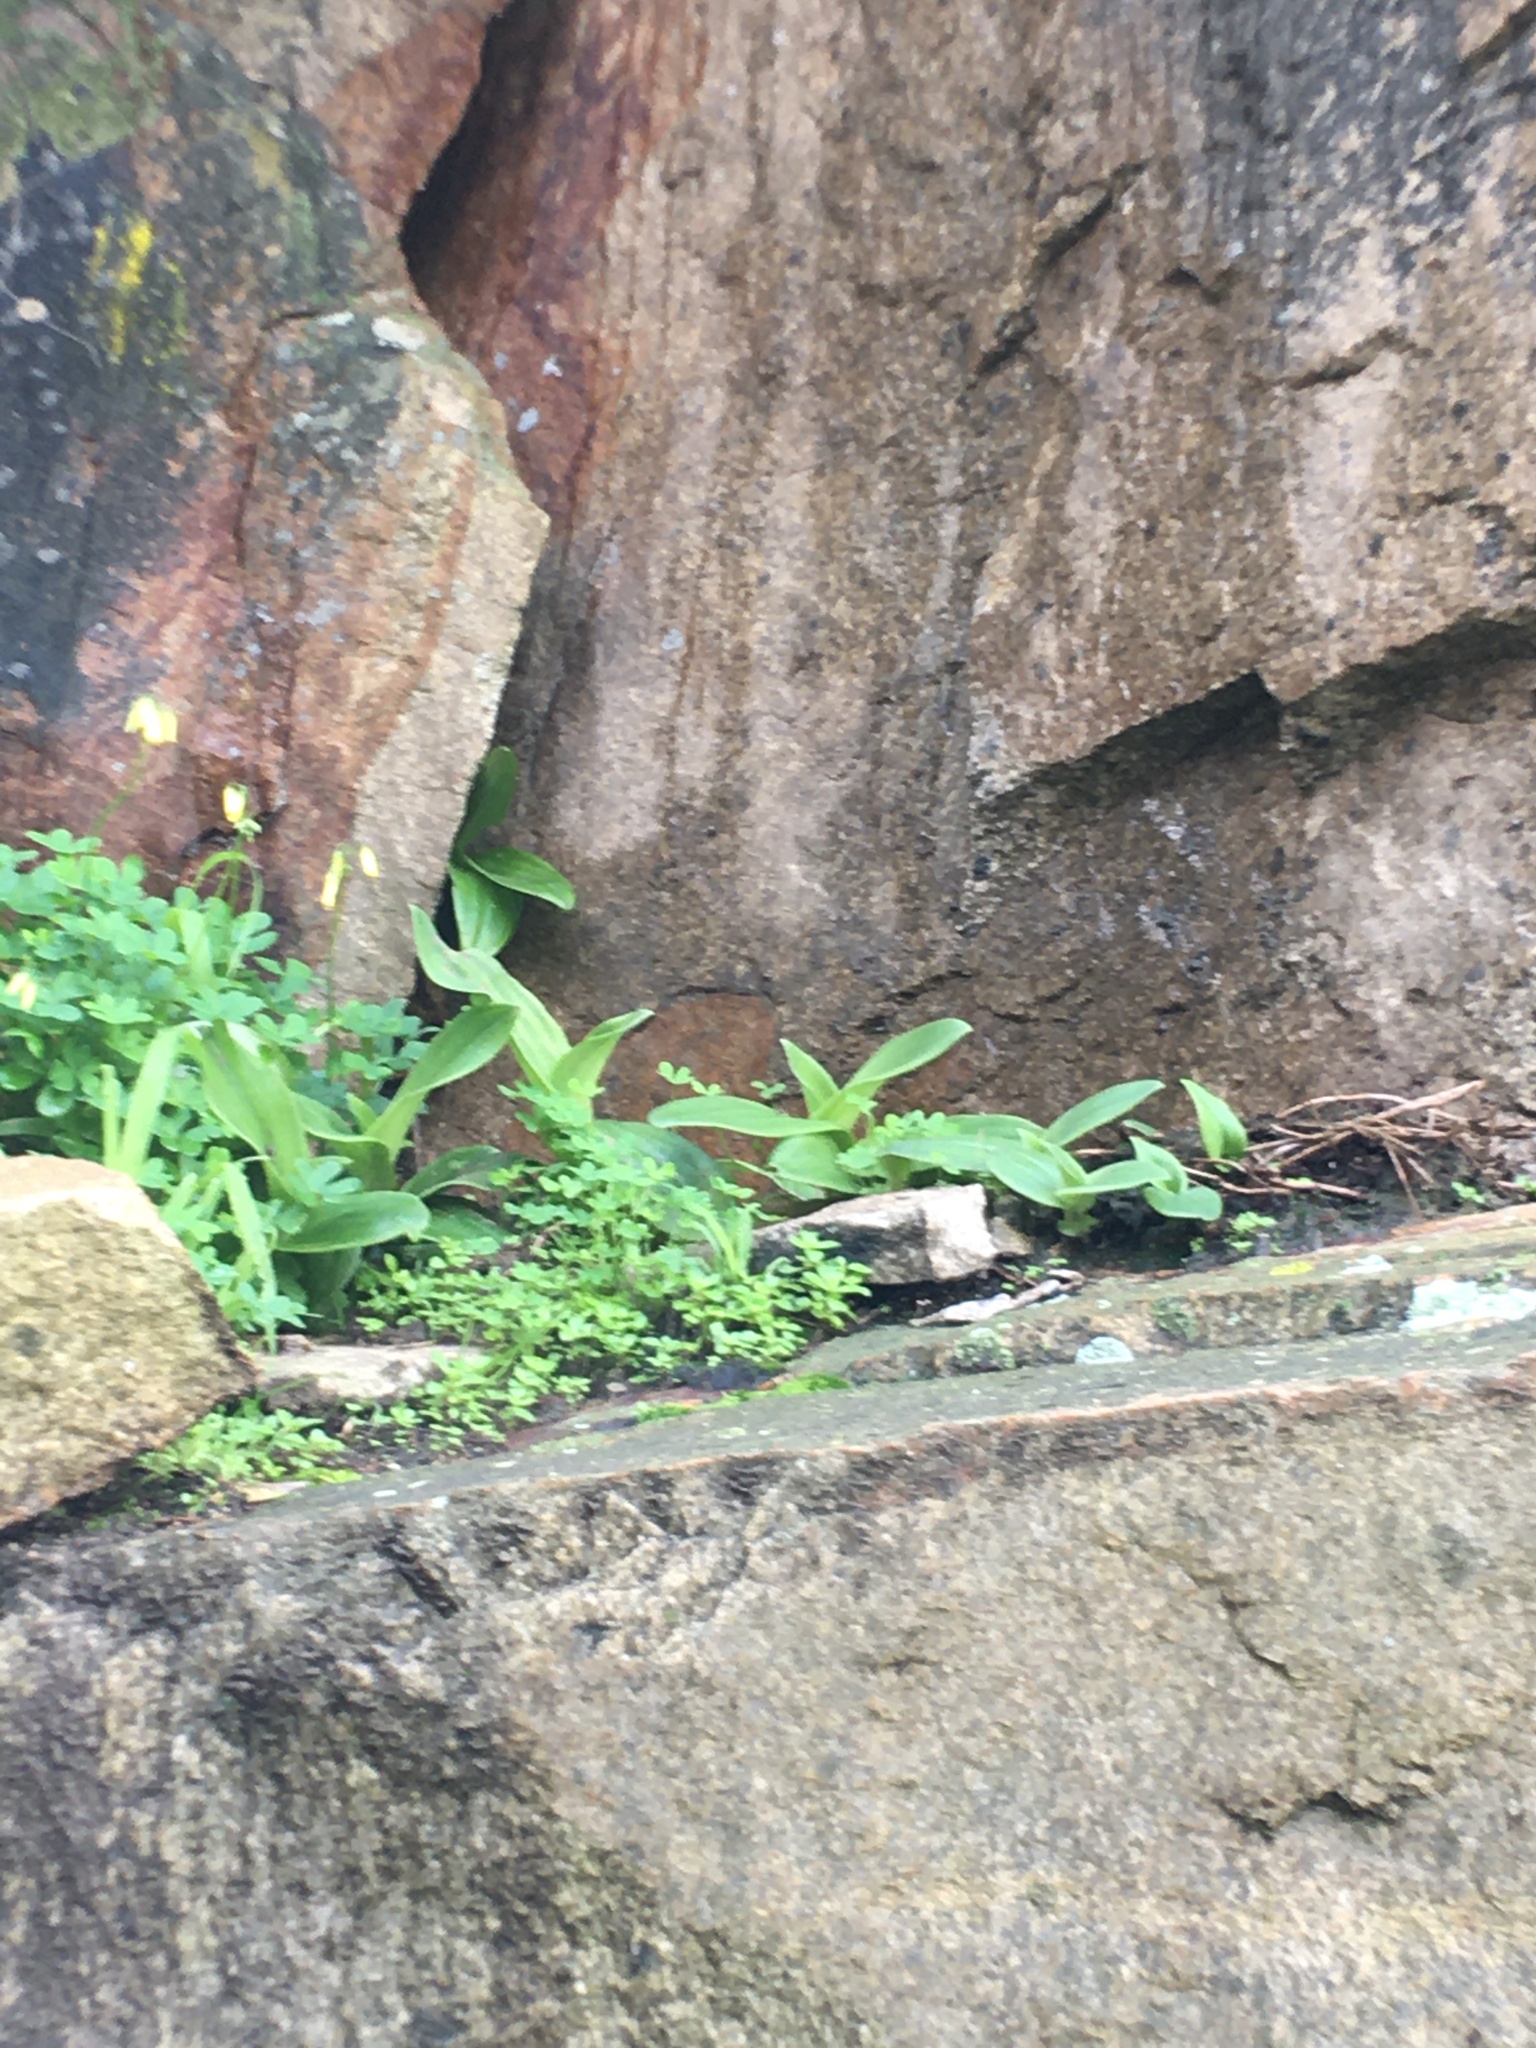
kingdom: Plantae
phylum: Tracheophyta
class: Liliopsida
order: Asparagales
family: Orchidaceae
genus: Satyrium
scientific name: Satyrium odorum
